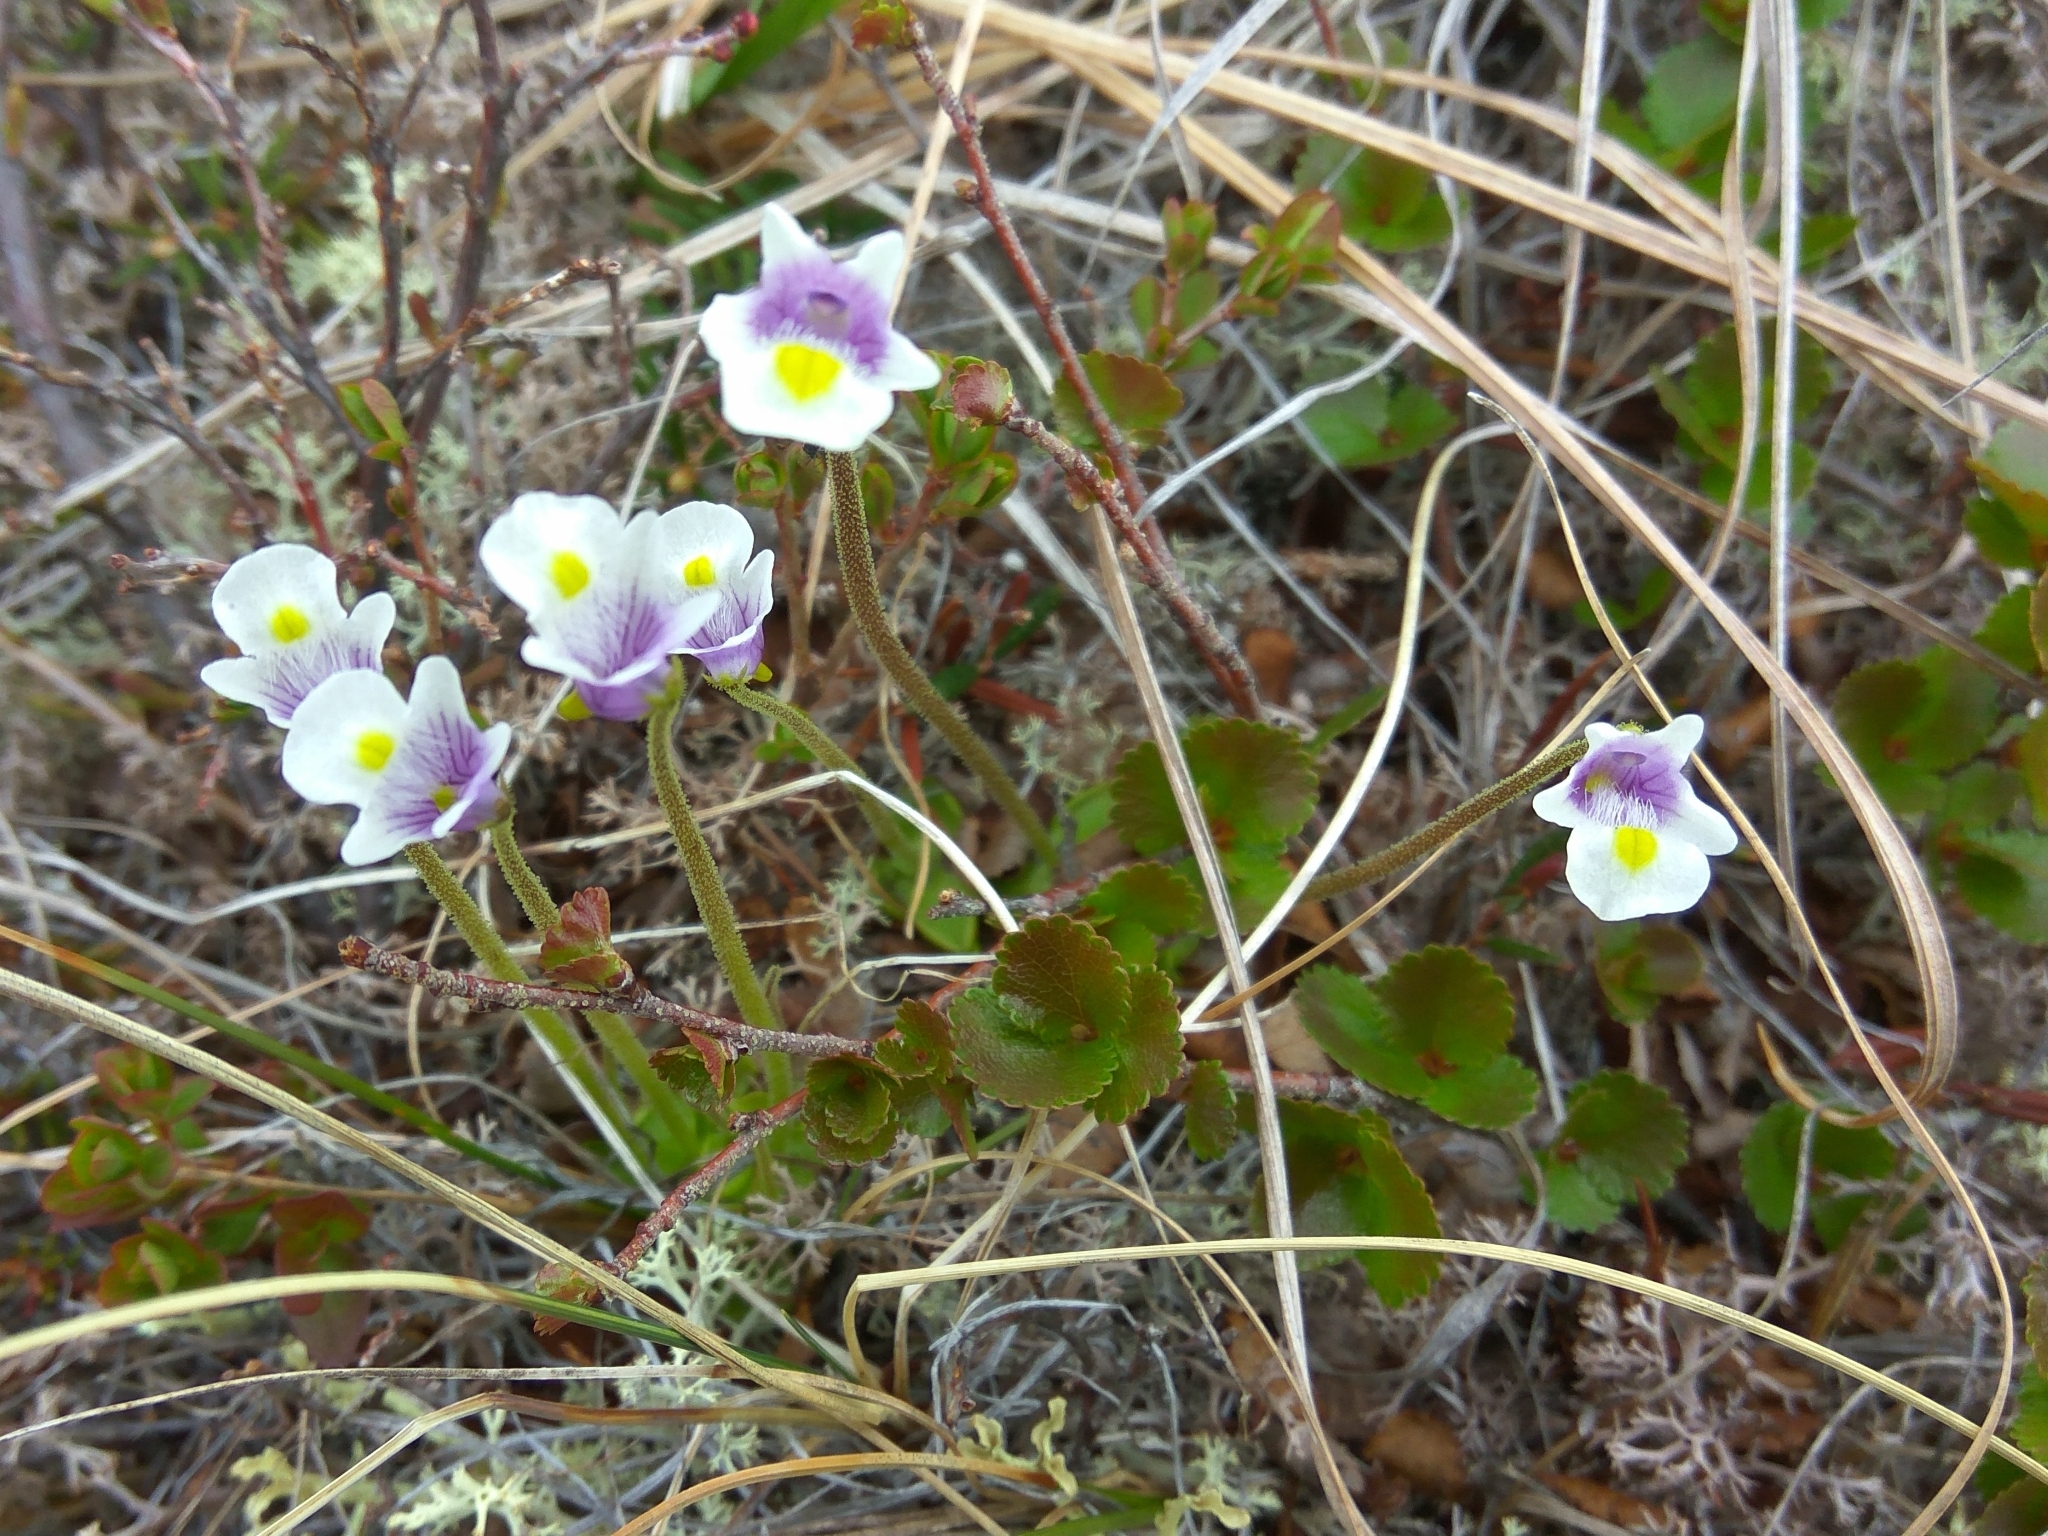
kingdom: Plantae
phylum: Tracheophyta
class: Magnoliopsida
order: Lamiales
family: Lentibulariaceae
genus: Pinguicula
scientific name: Pinguicula spathulata
